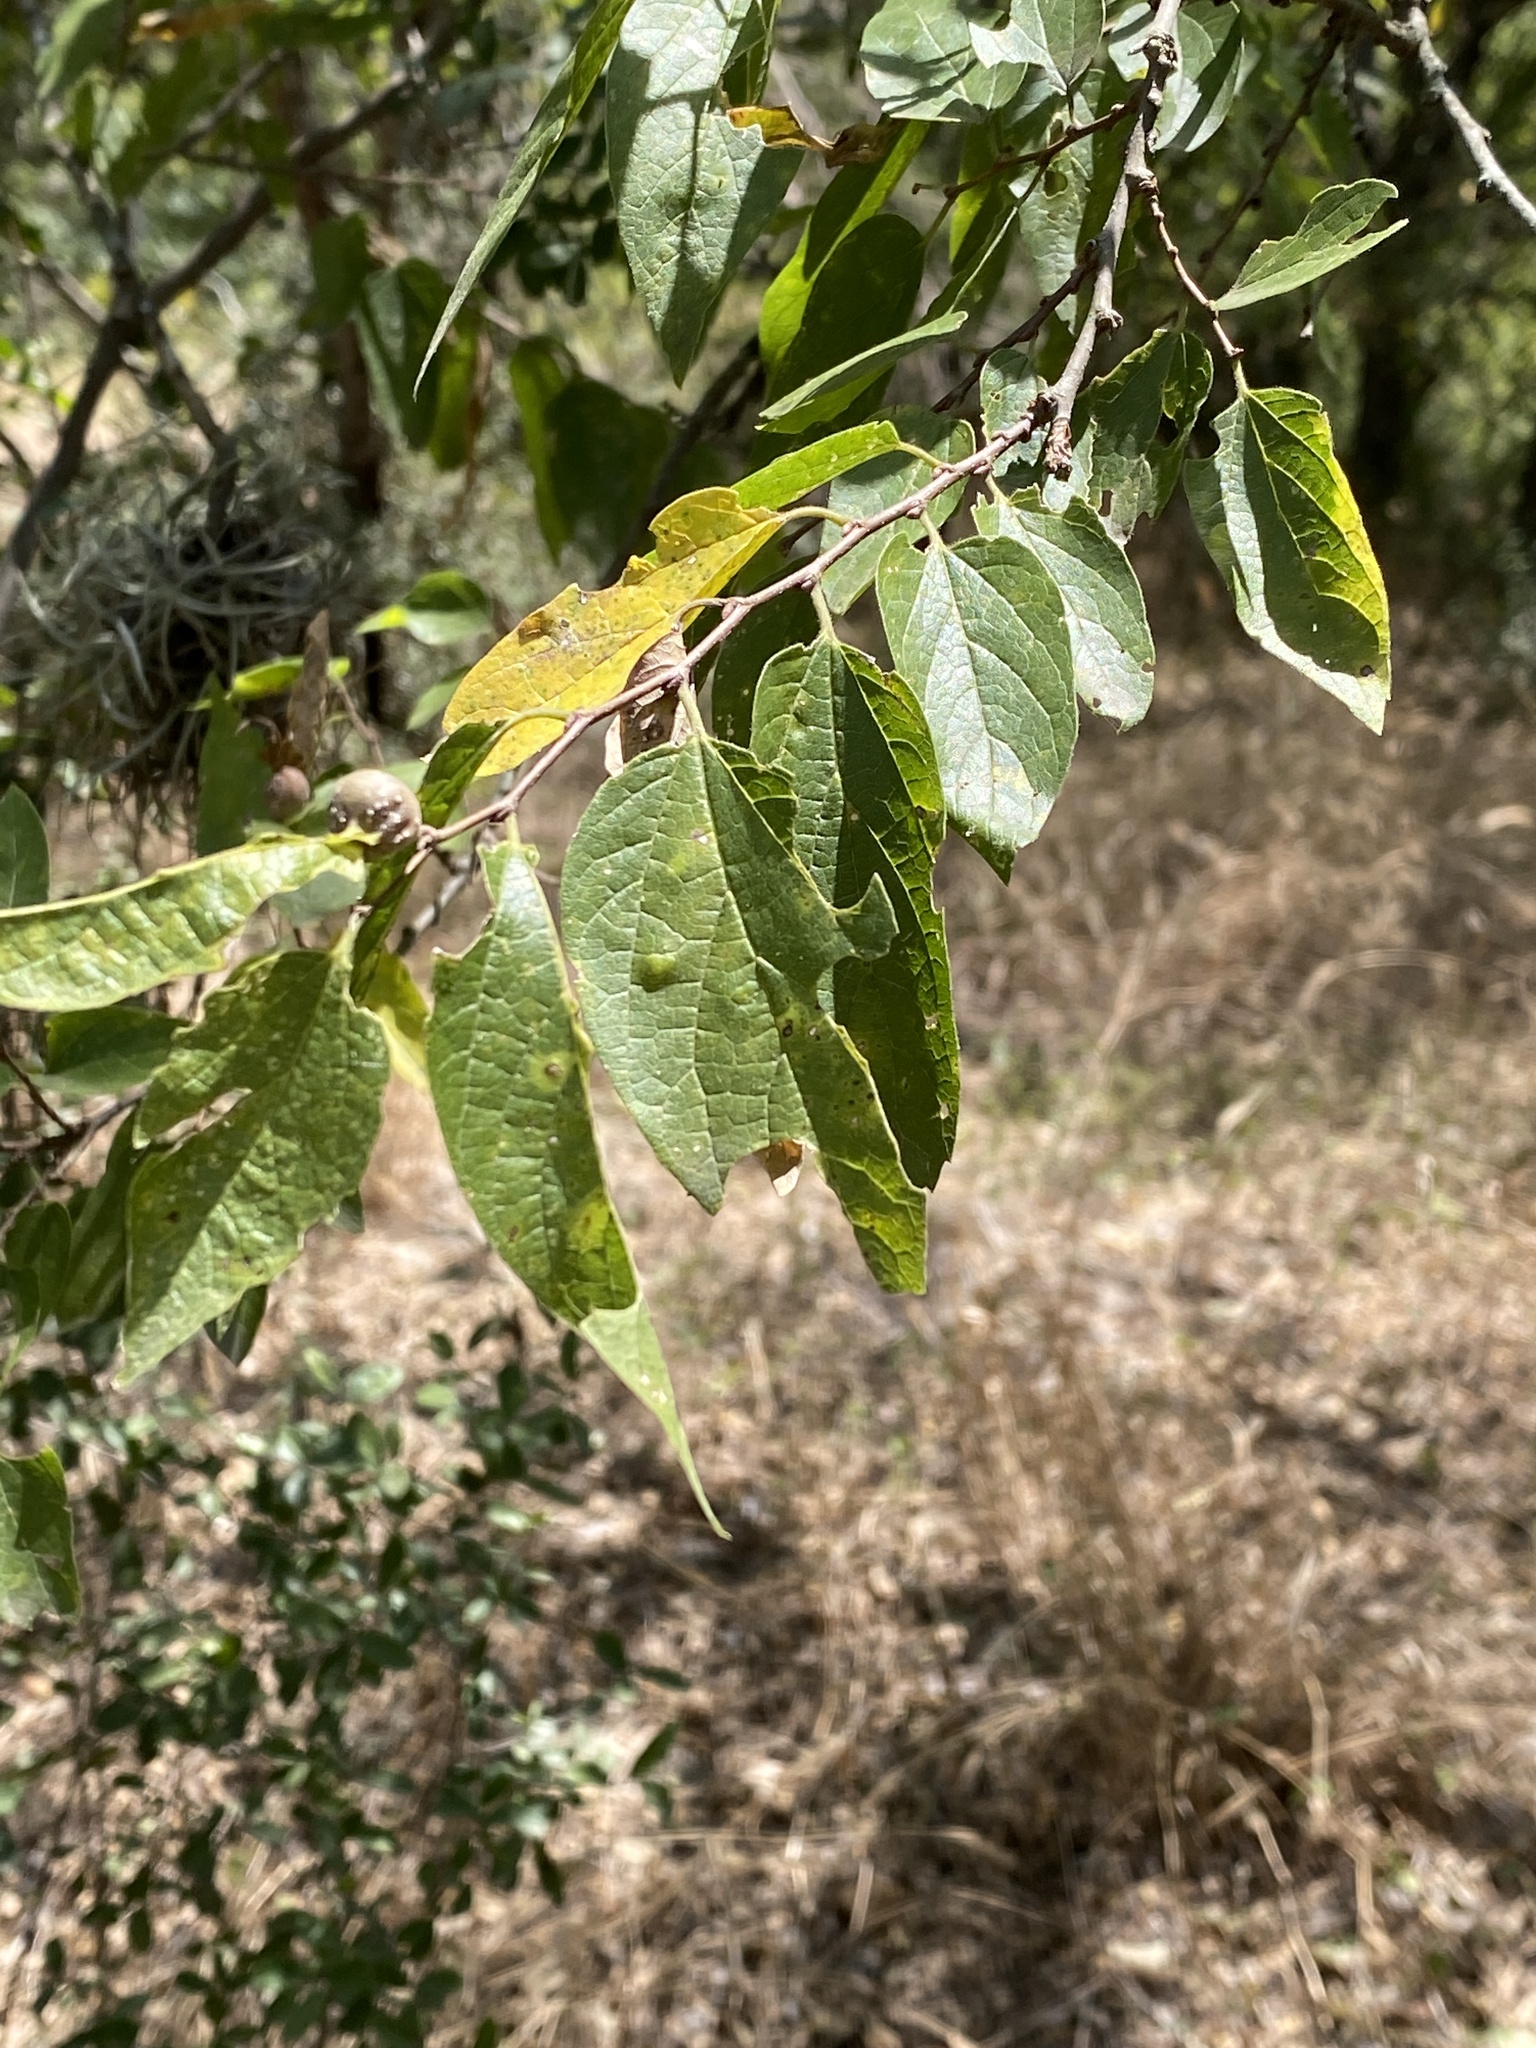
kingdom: Plantae
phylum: Tracheophyta
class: Magnoliopsida
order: Rosales
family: Cannabaceae
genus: Celtis
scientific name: Celtis laevigata
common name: Sugarberry
